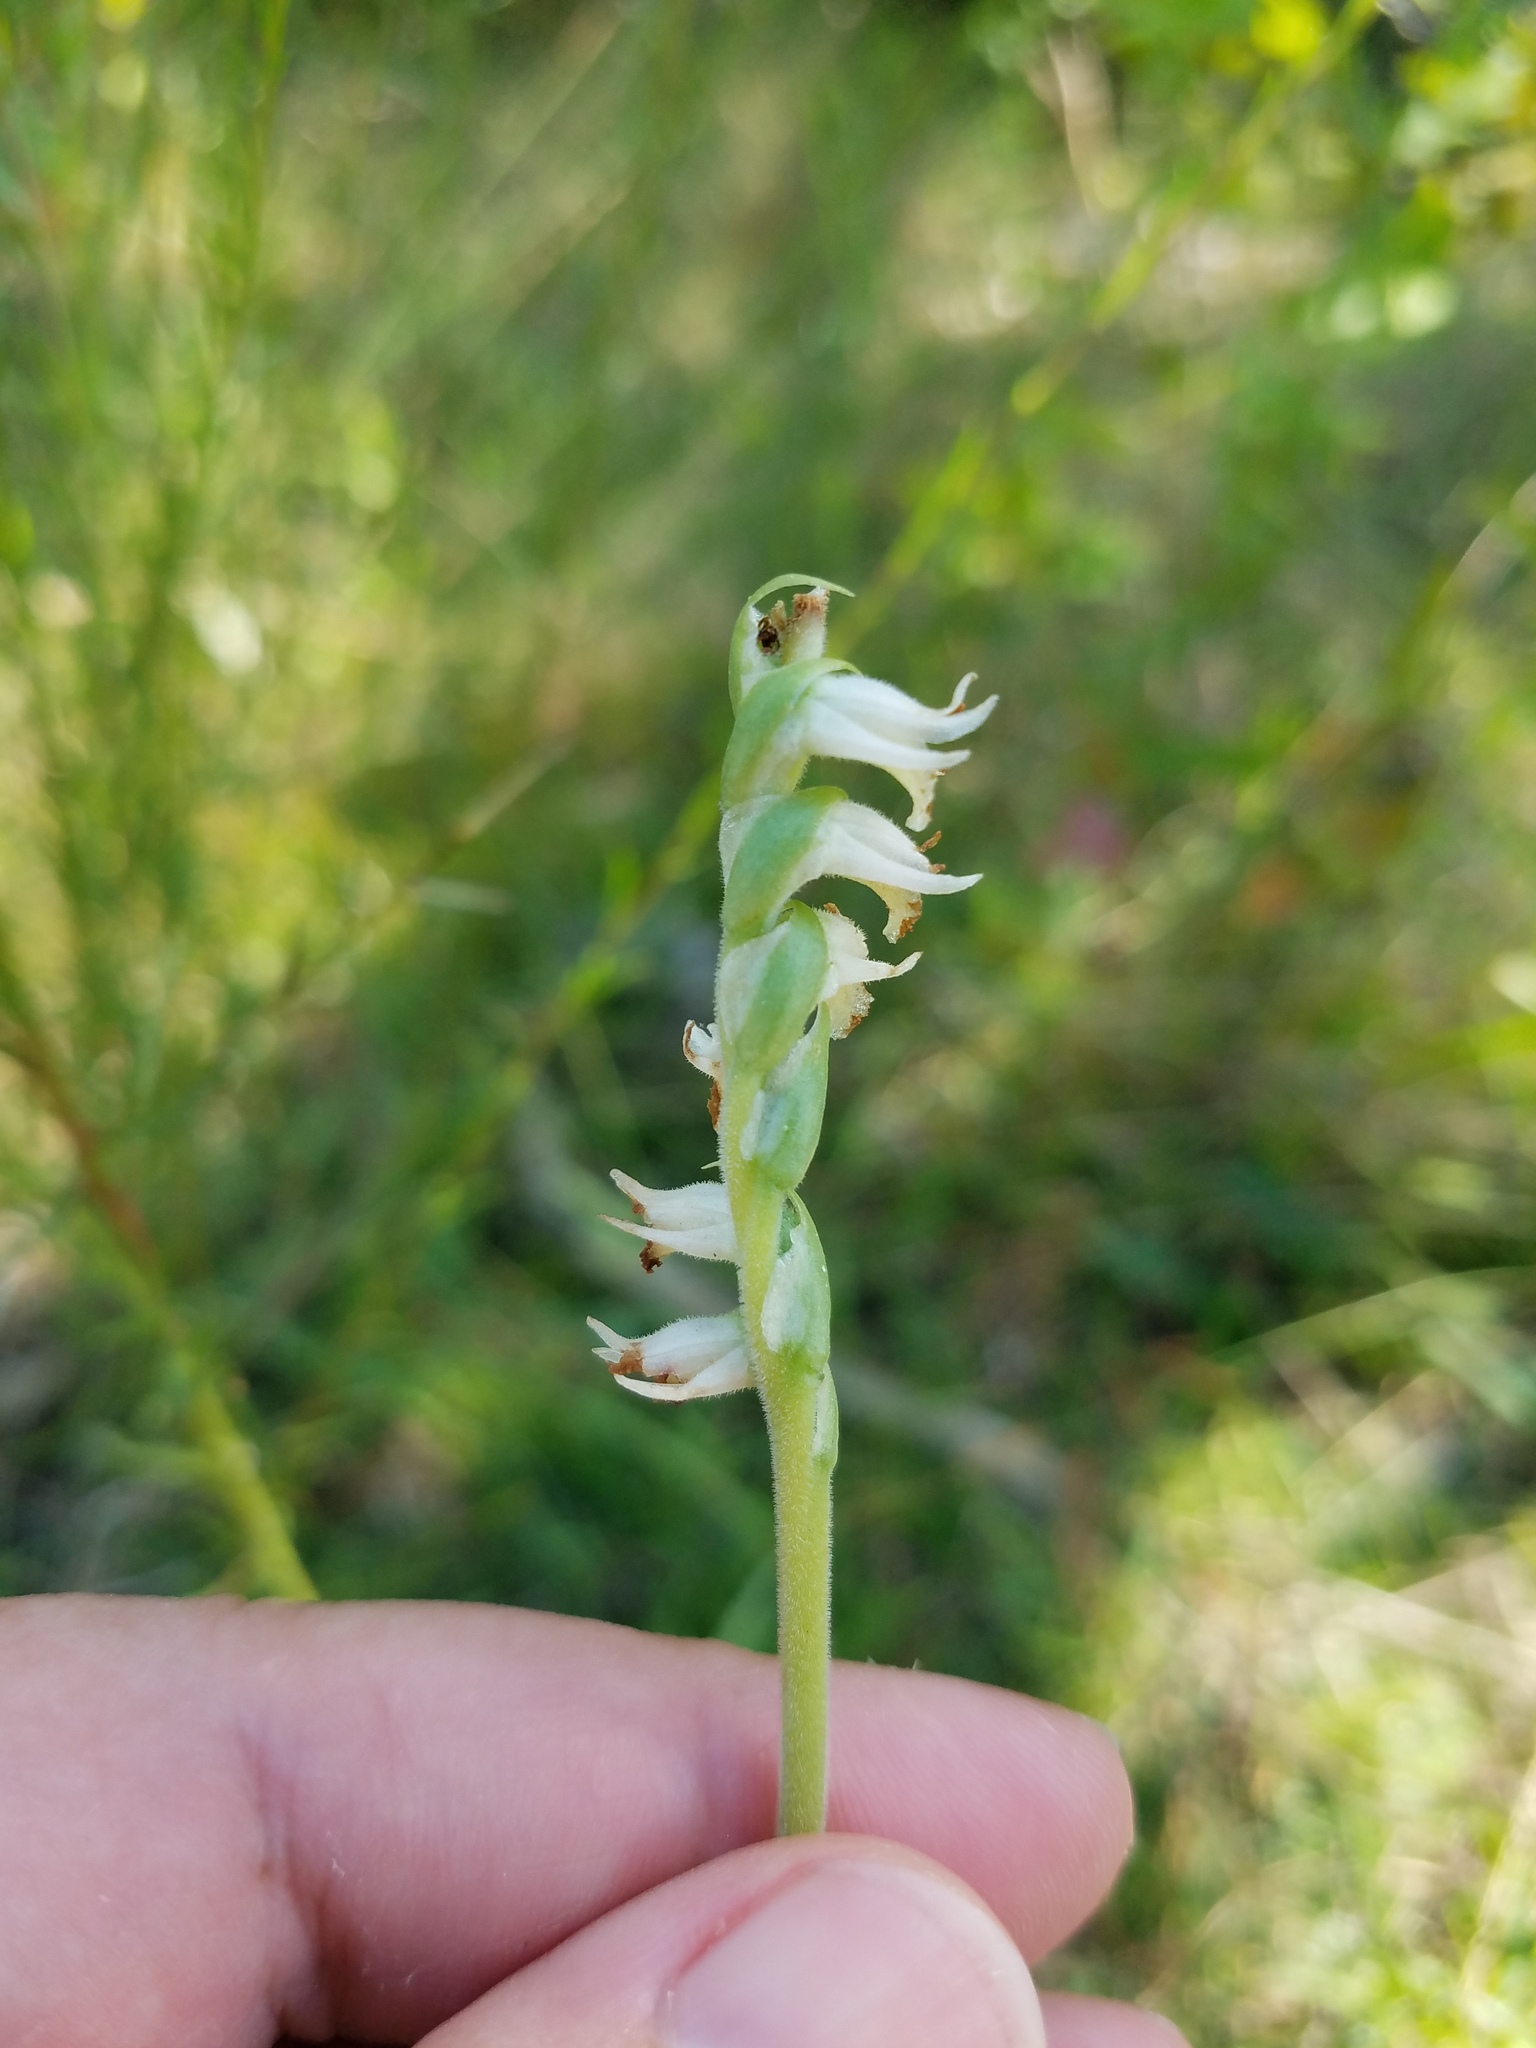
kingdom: Plantae
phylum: Tracheophyta
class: Liliopsida
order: Asparagales
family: Orchidaceae
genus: Spiranthes
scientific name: Spiranthes vernalis
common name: Spring ladies'-tresses
